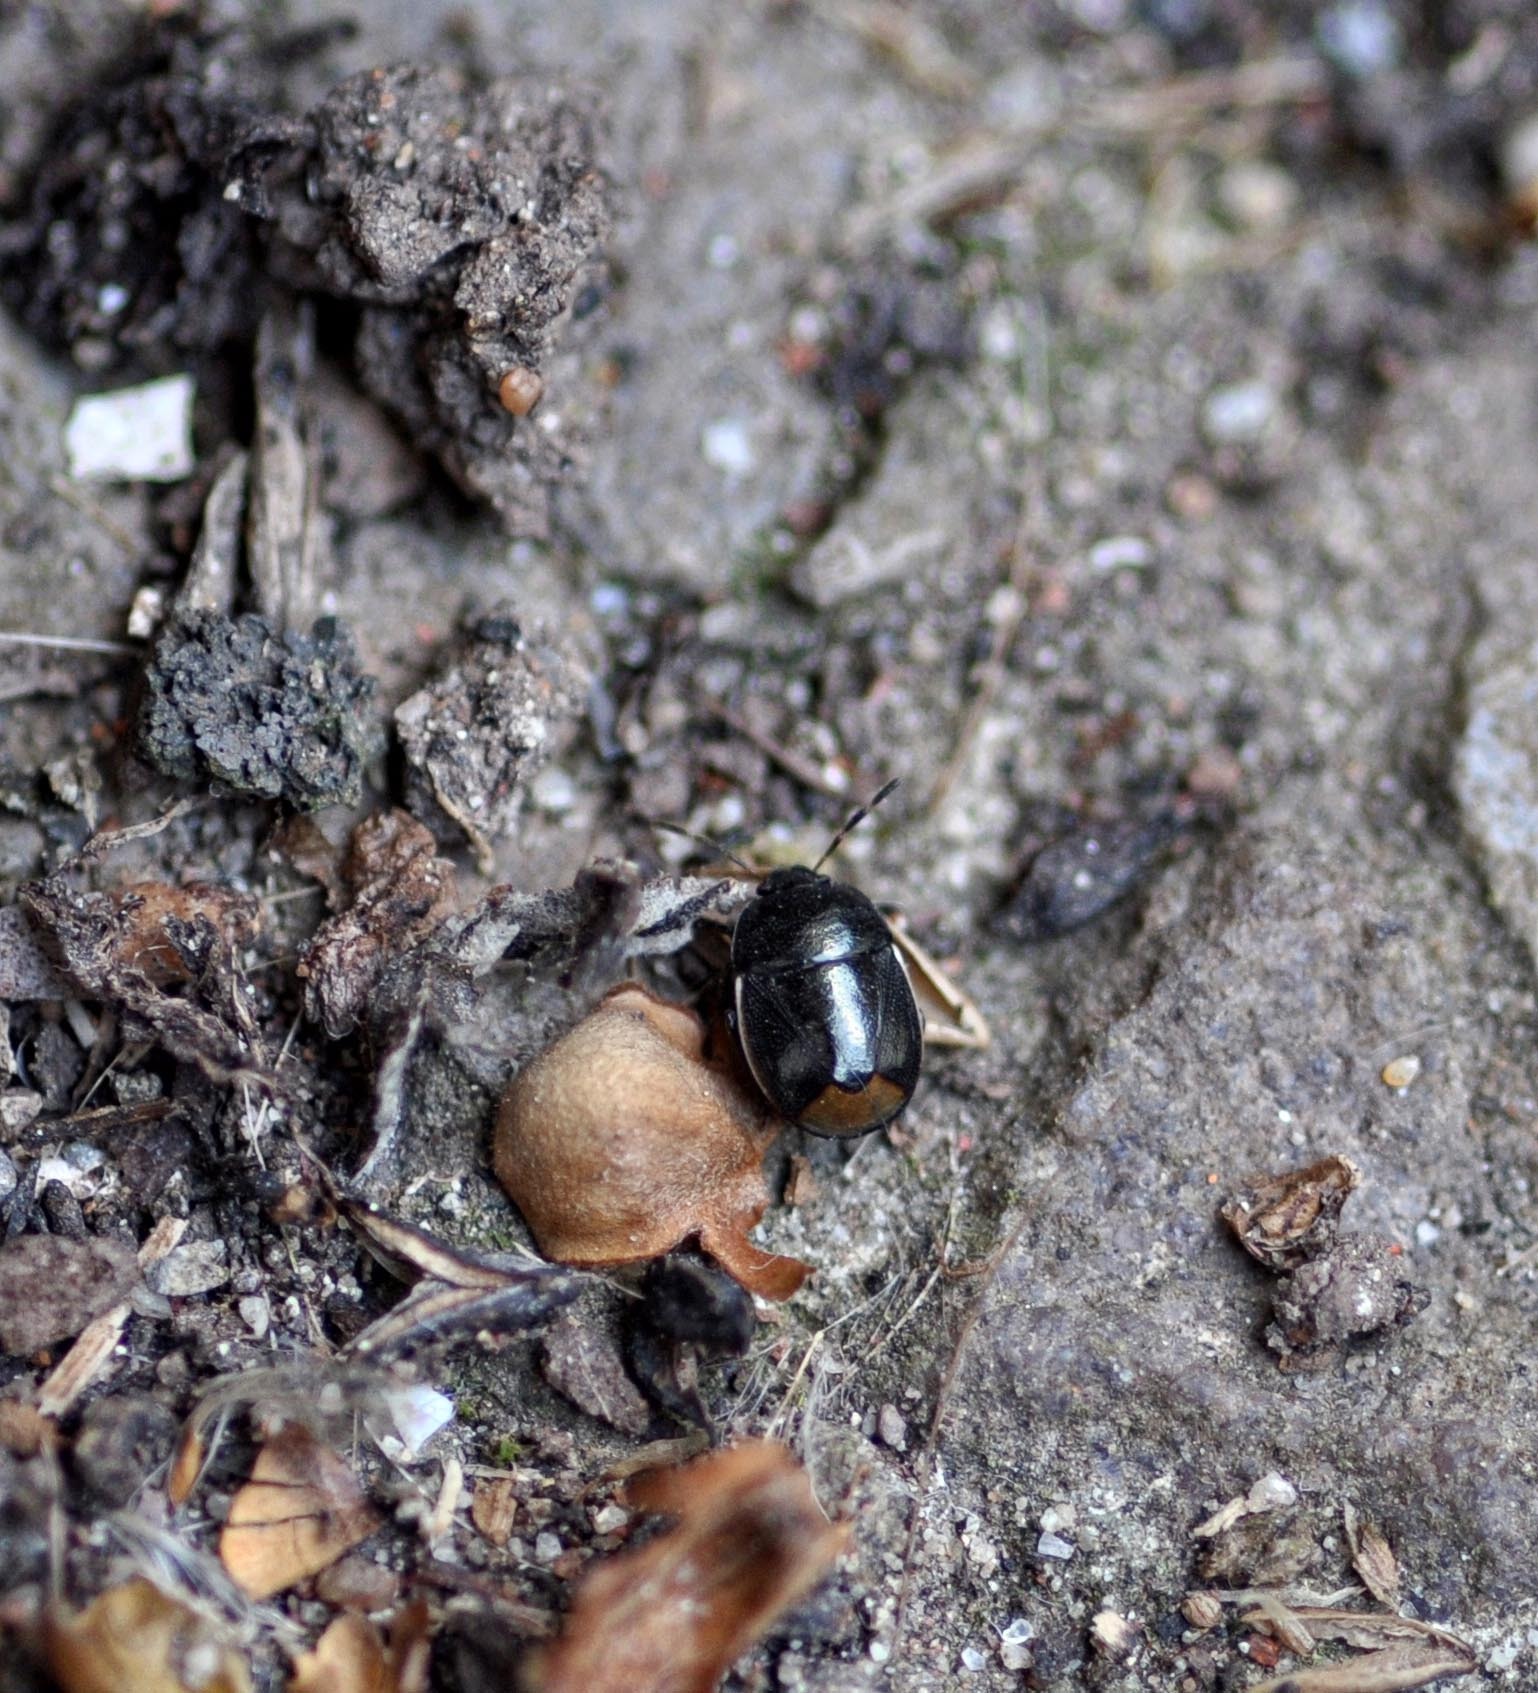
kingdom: Animalia
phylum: Arthropoda
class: Insecta
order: Hemiptera
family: Cydnidae
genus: Legnotus
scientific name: Legnotus limbosus
